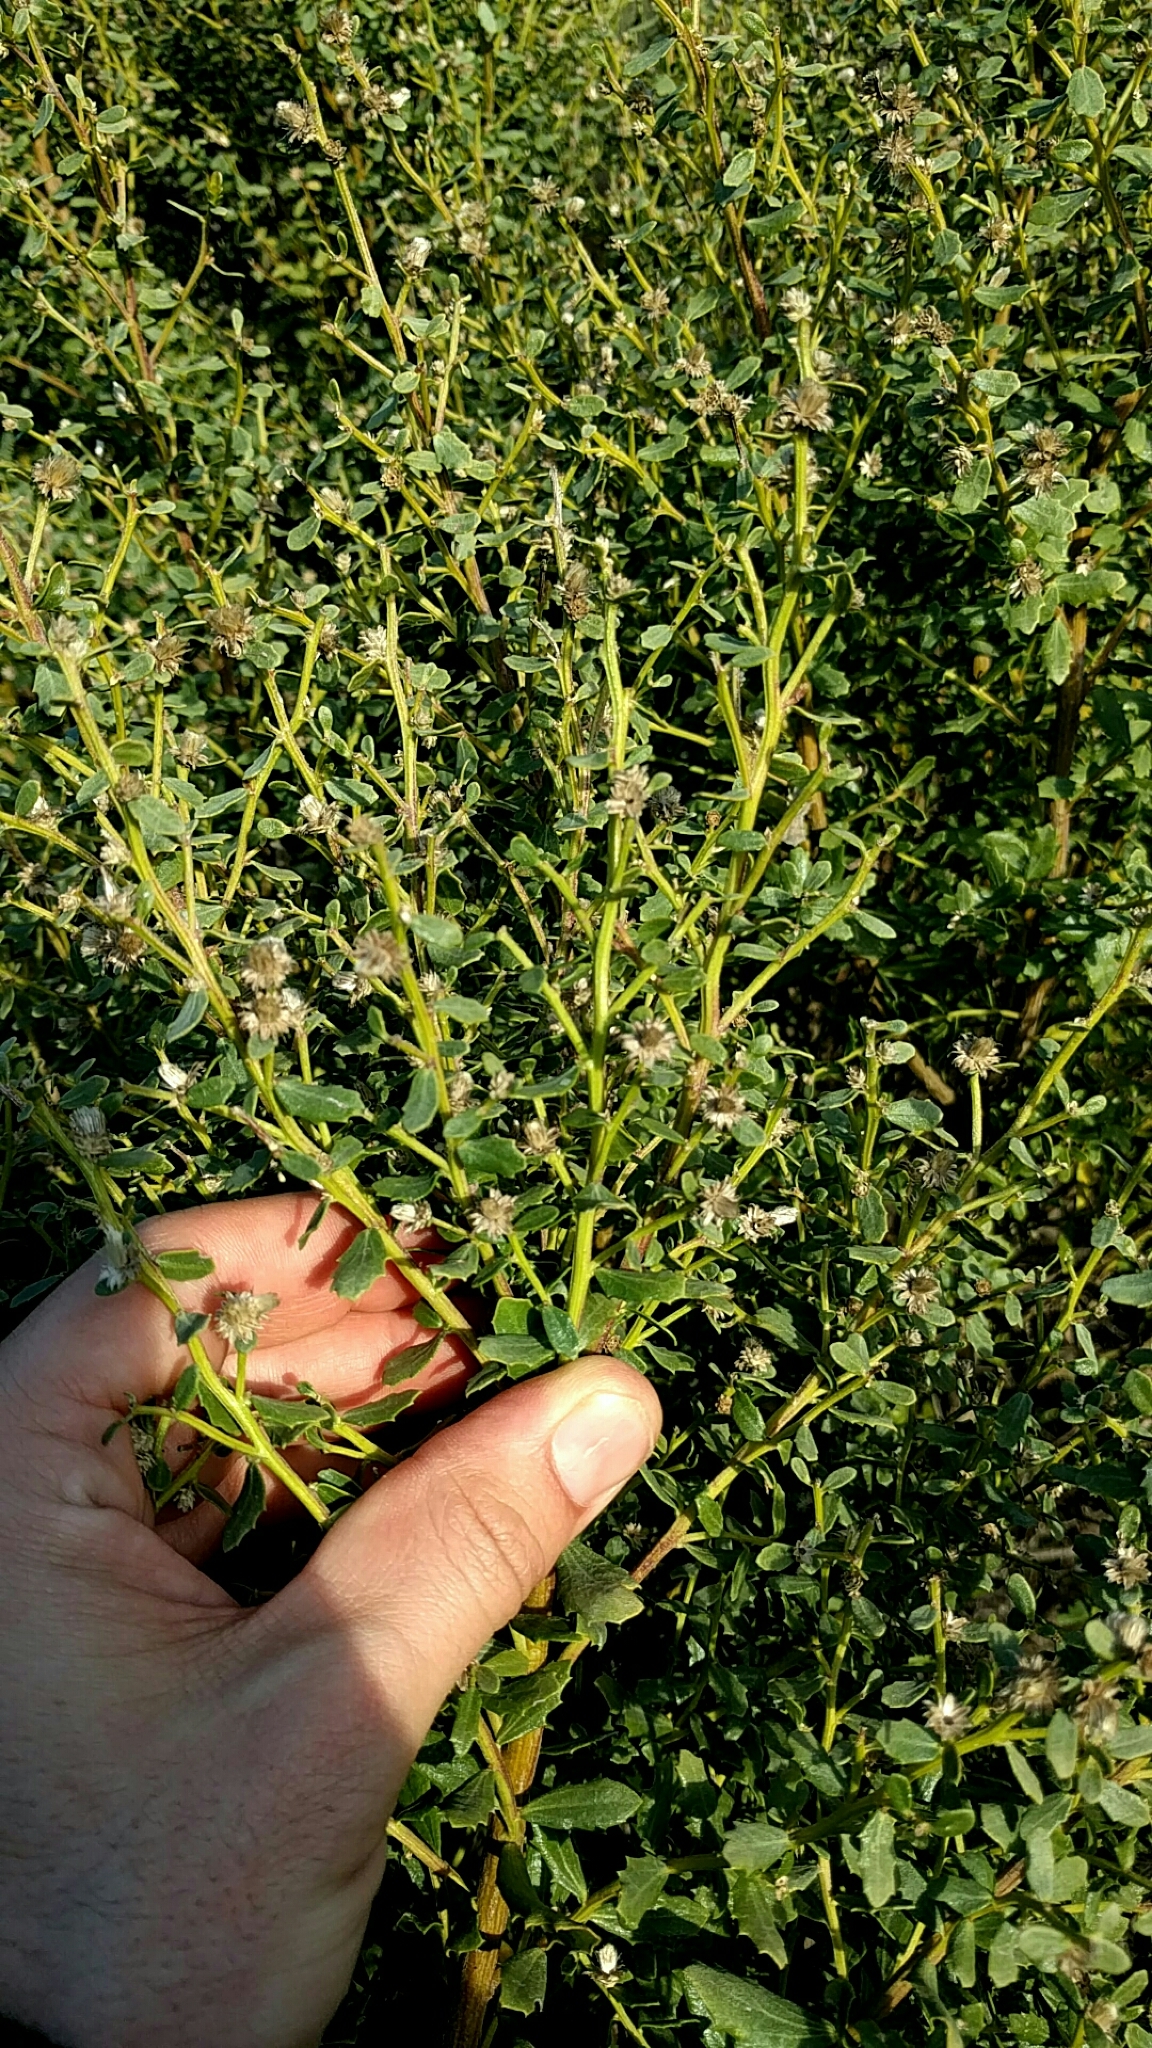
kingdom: Plantae
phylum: Tracheophyta
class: Magnoliopsida
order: Asterales
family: Asteraceae
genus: Baccharis
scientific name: Baccharis pilularis
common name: Coyotebrush
